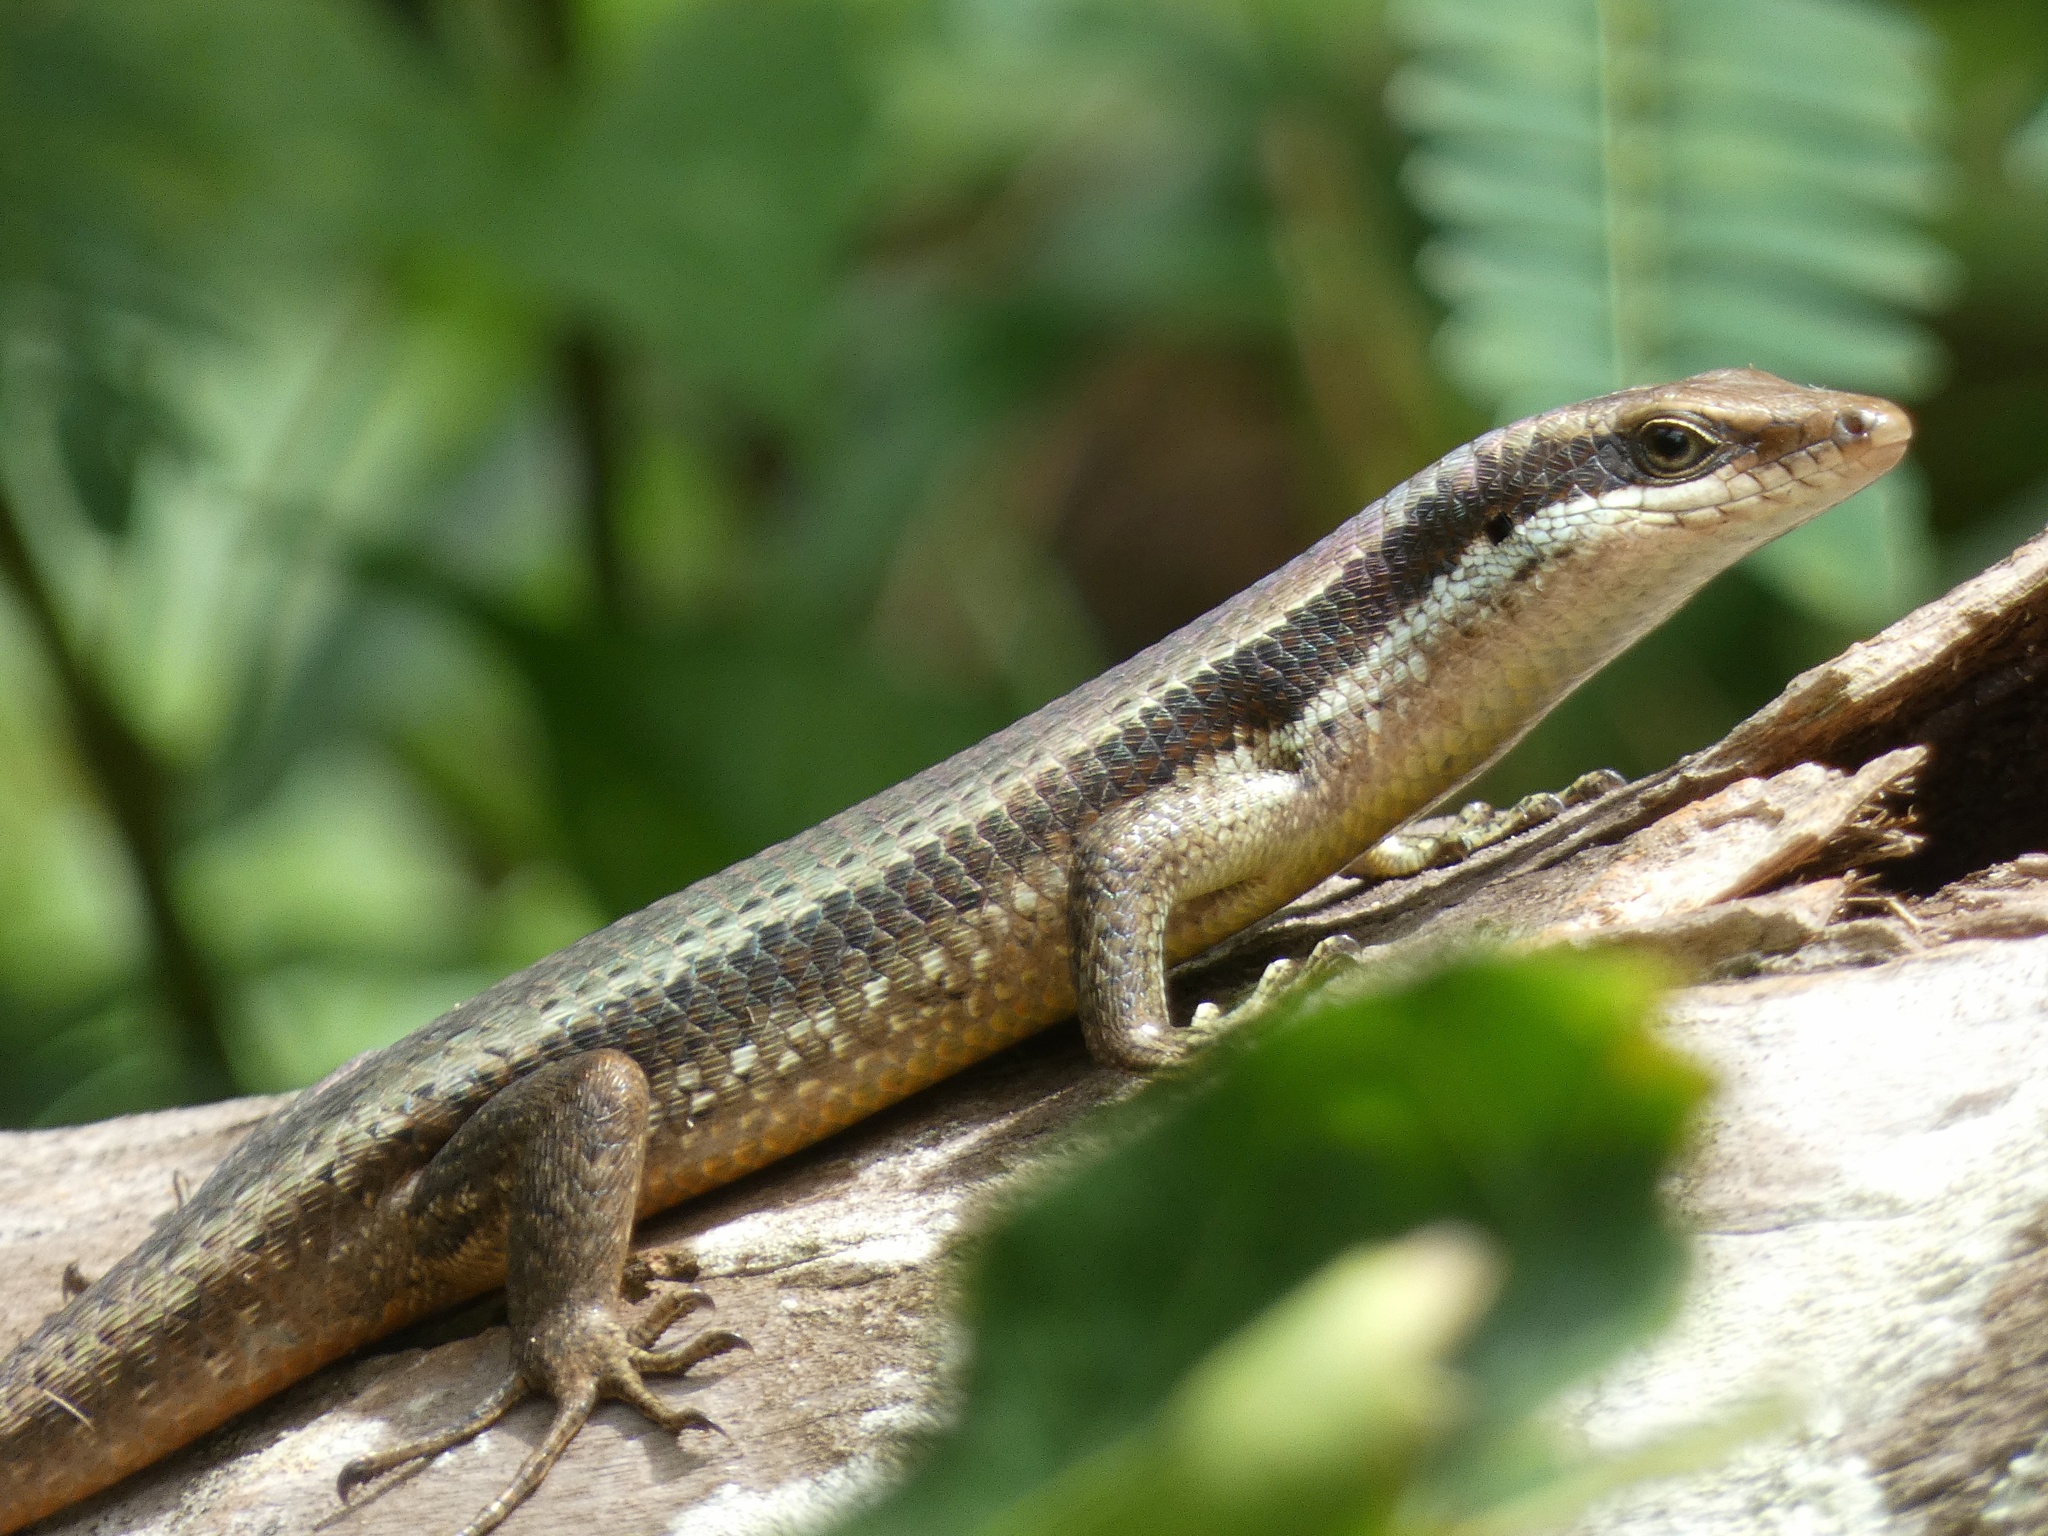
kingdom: Animalia
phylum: Chordata
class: Squamata
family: Scincidae
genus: Eutropis
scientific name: Eutropis multicarinata
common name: Two-striped mabouya
